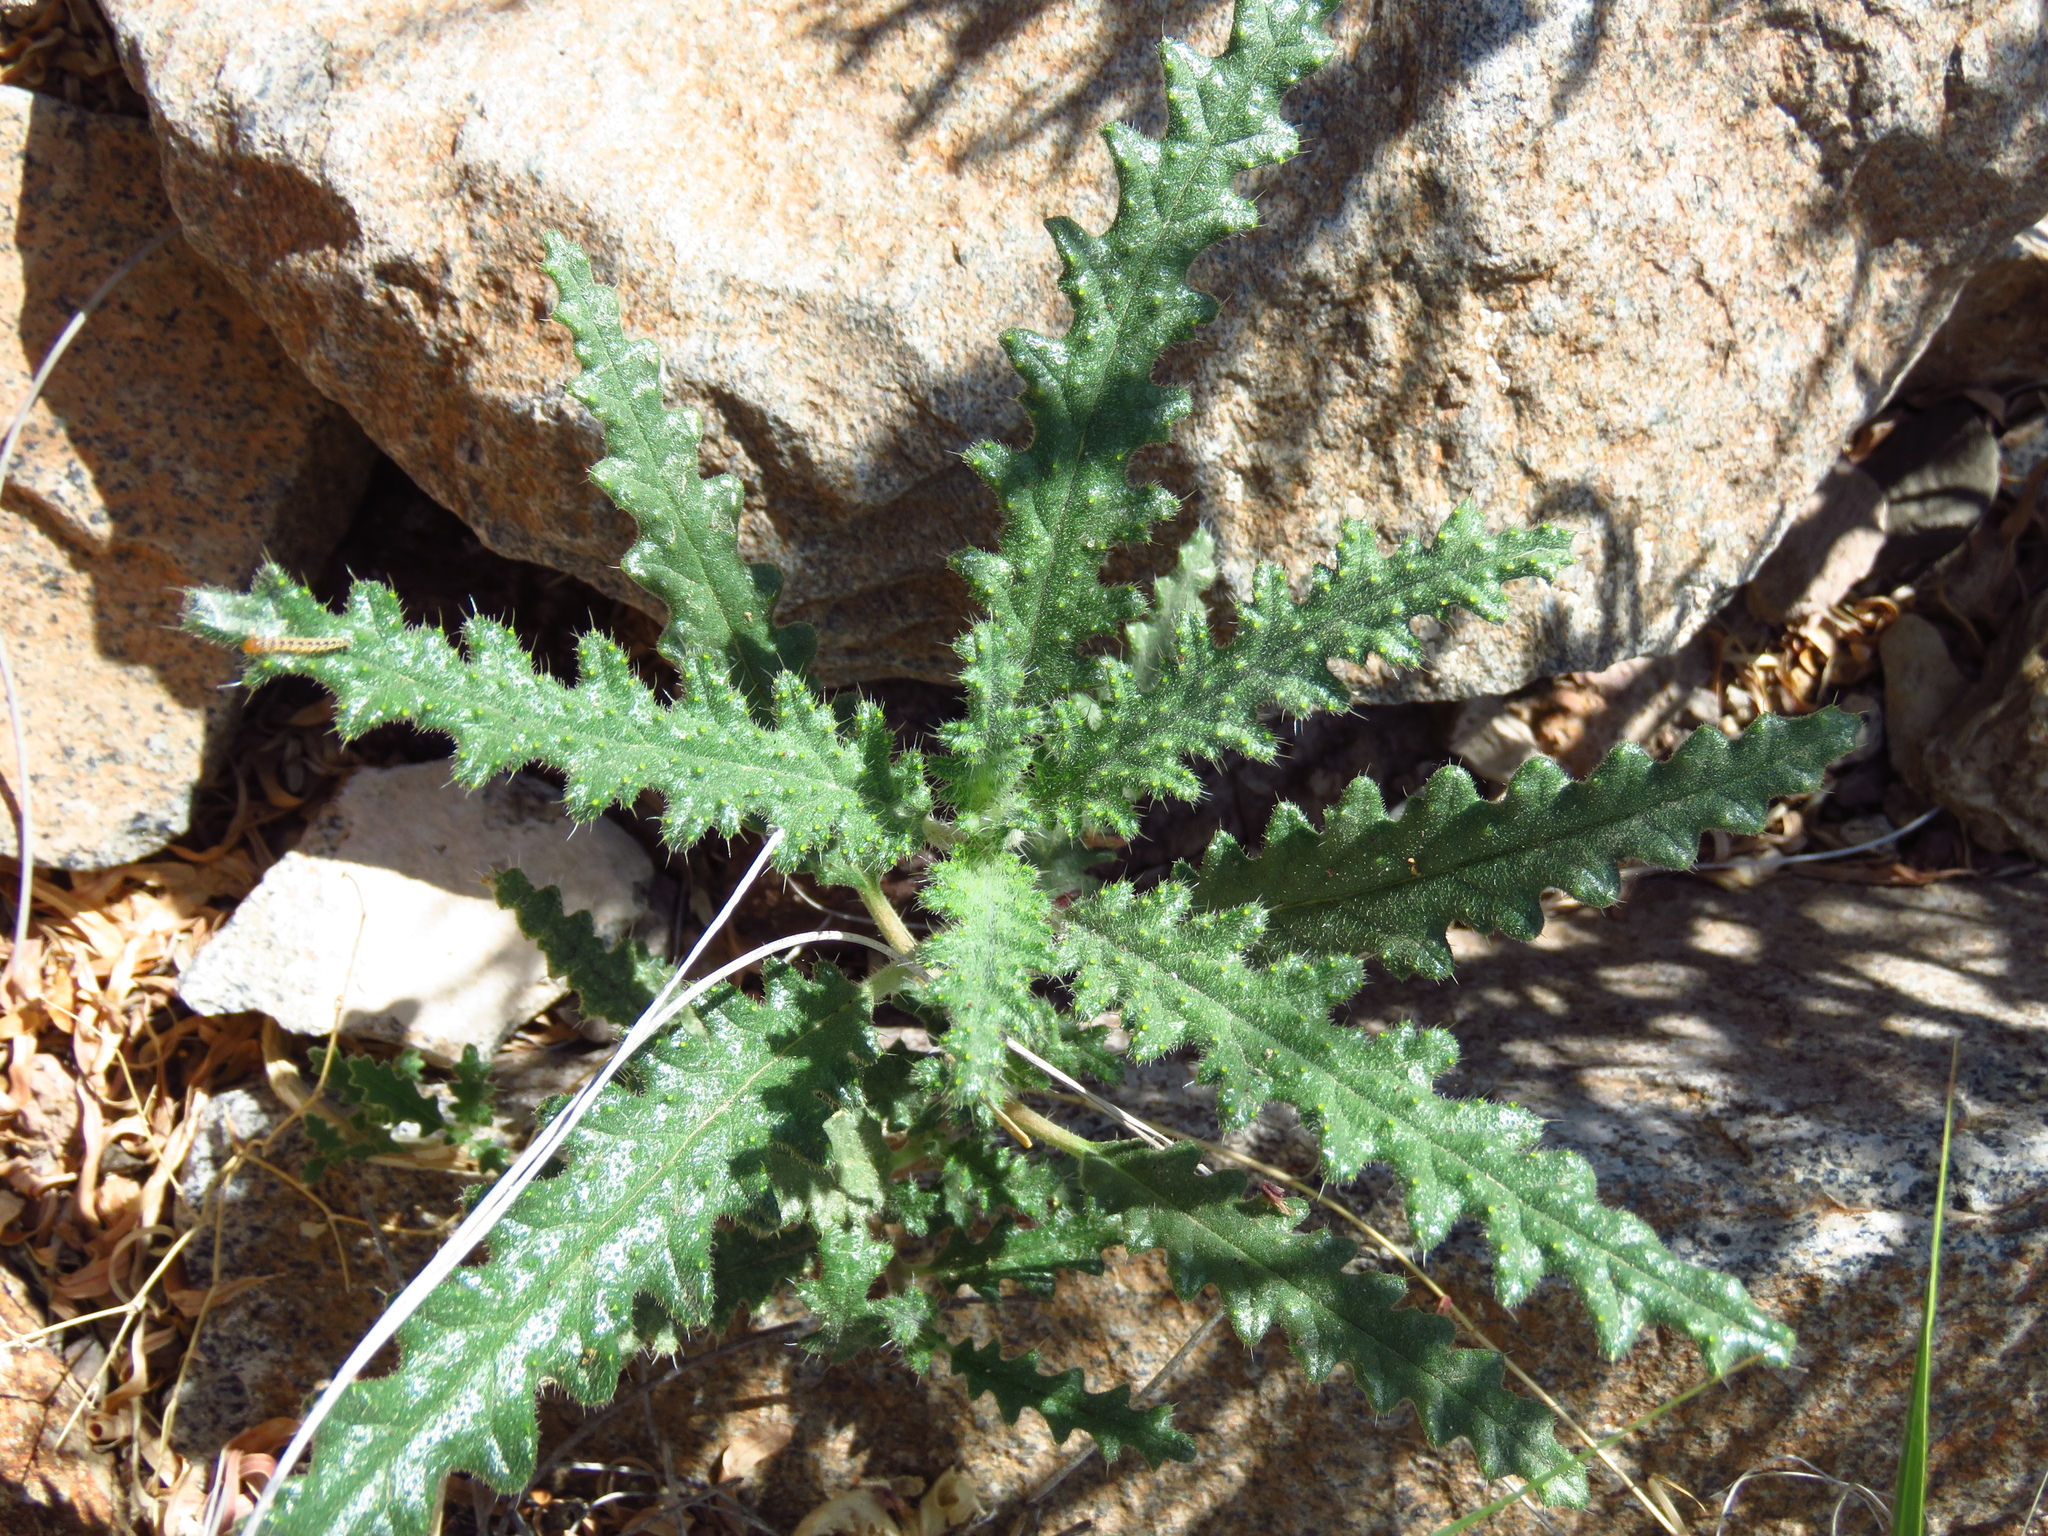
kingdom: Plantae
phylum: Tracheophyta
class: Magnoliopsida
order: Cornales
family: Loasaceae
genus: Cevallia
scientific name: Cevallia sinuata
